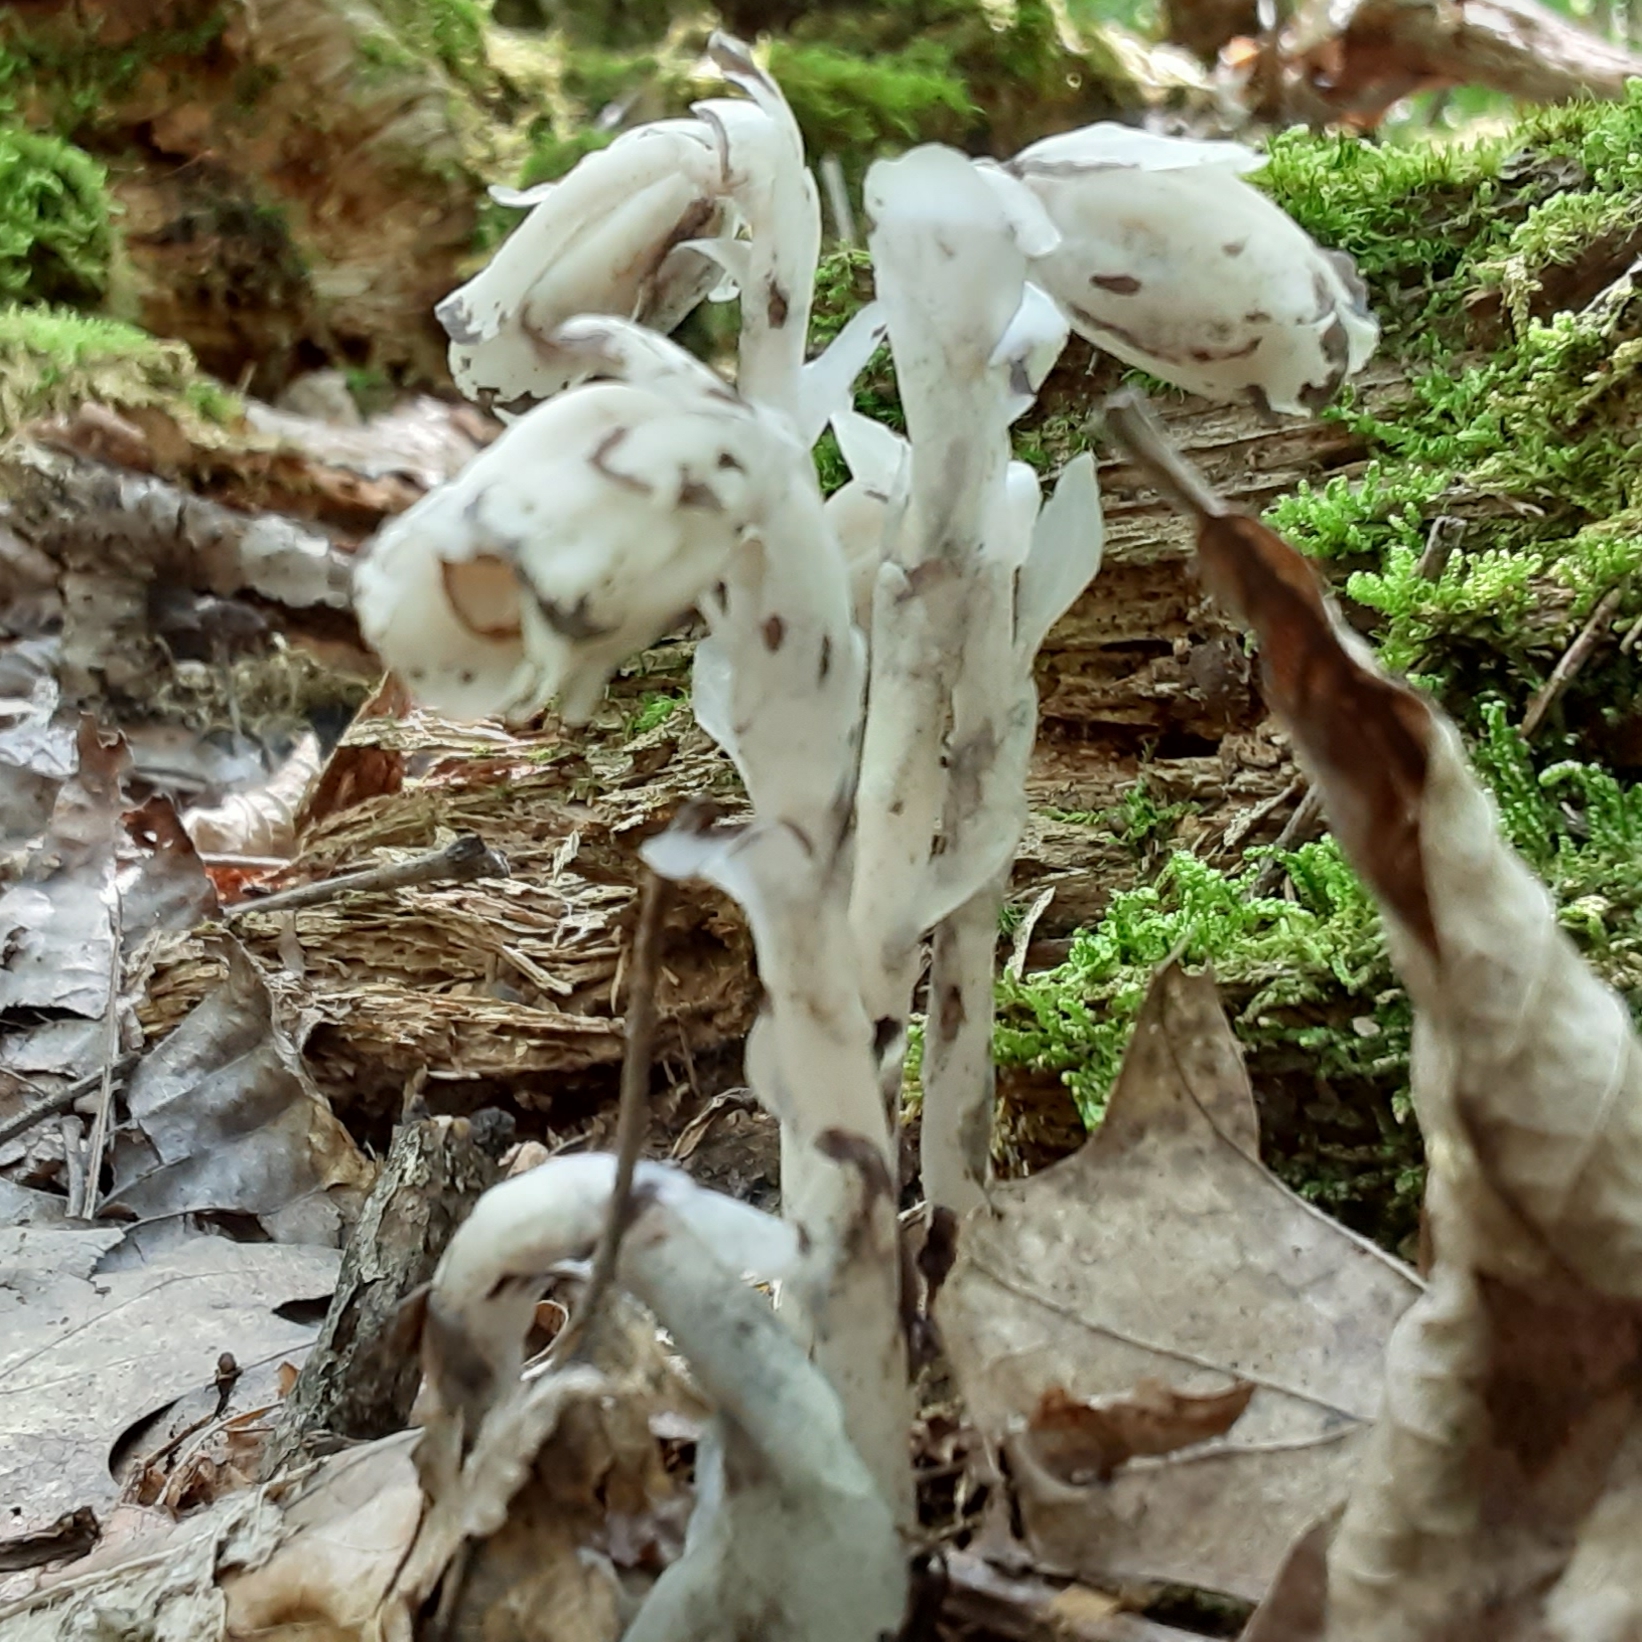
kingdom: Plantae
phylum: Tracheophyta
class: Magnoliopsida
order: Ericales
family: Ericaceae
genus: Monotropa
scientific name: Monotropa uniflora
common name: Convulsion root
